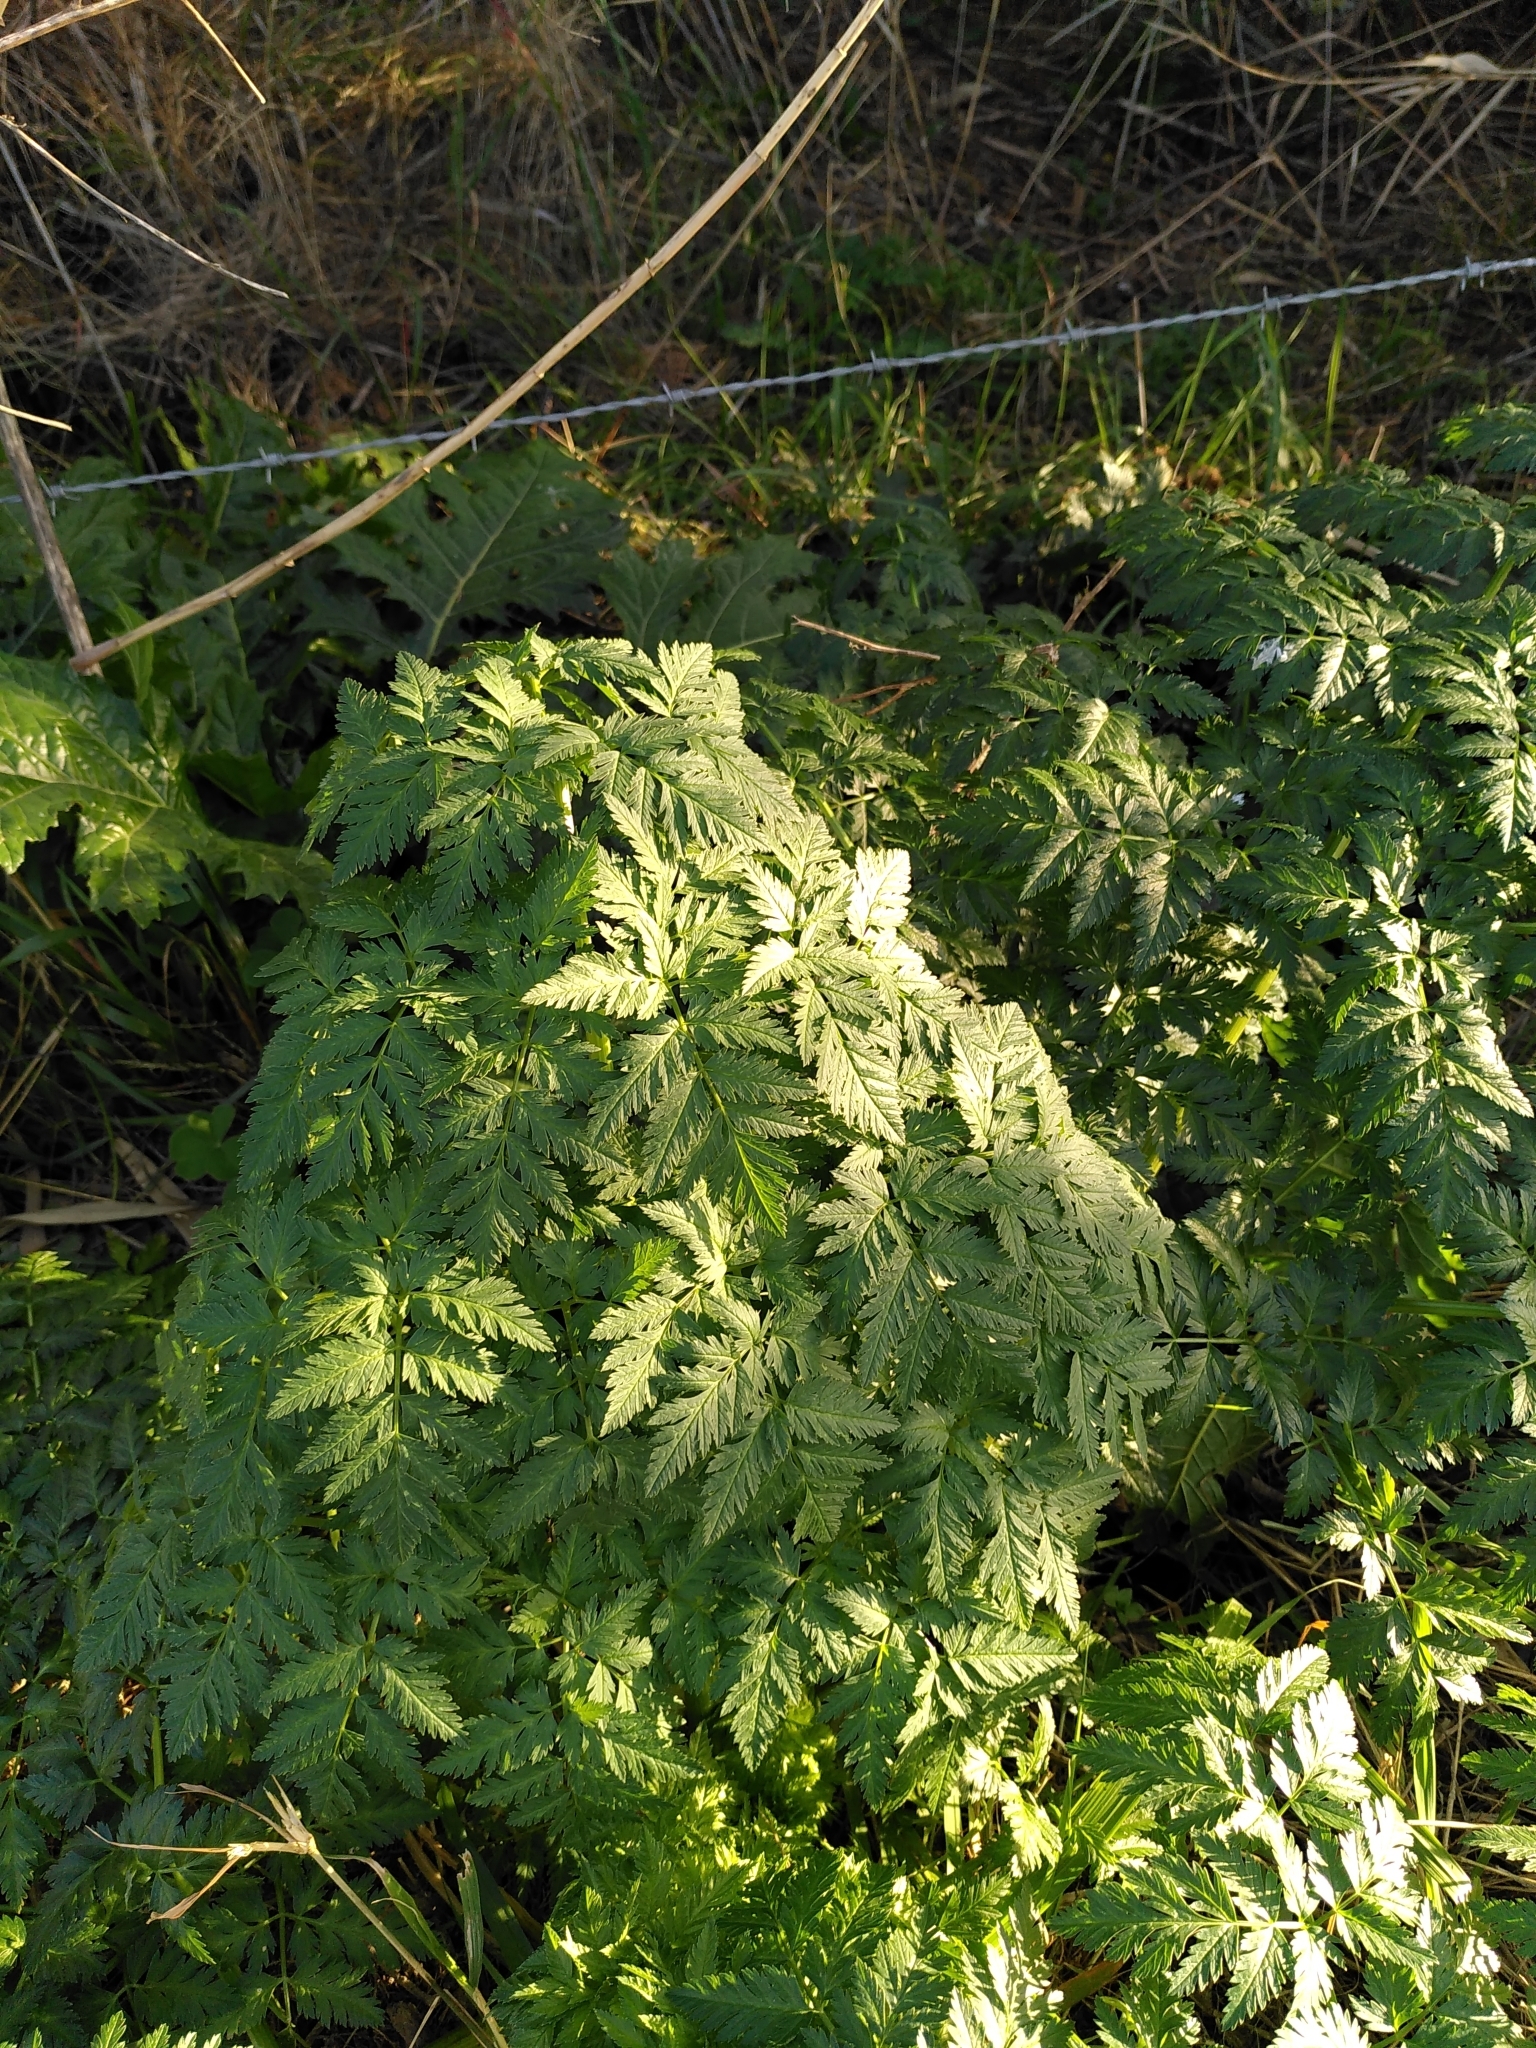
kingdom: Plantae
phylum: Tracheophyta
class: Magnoliopsida
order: Apiales
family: Apiaceae
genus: Conium
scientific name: Conium maculatum
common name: Hemlock
